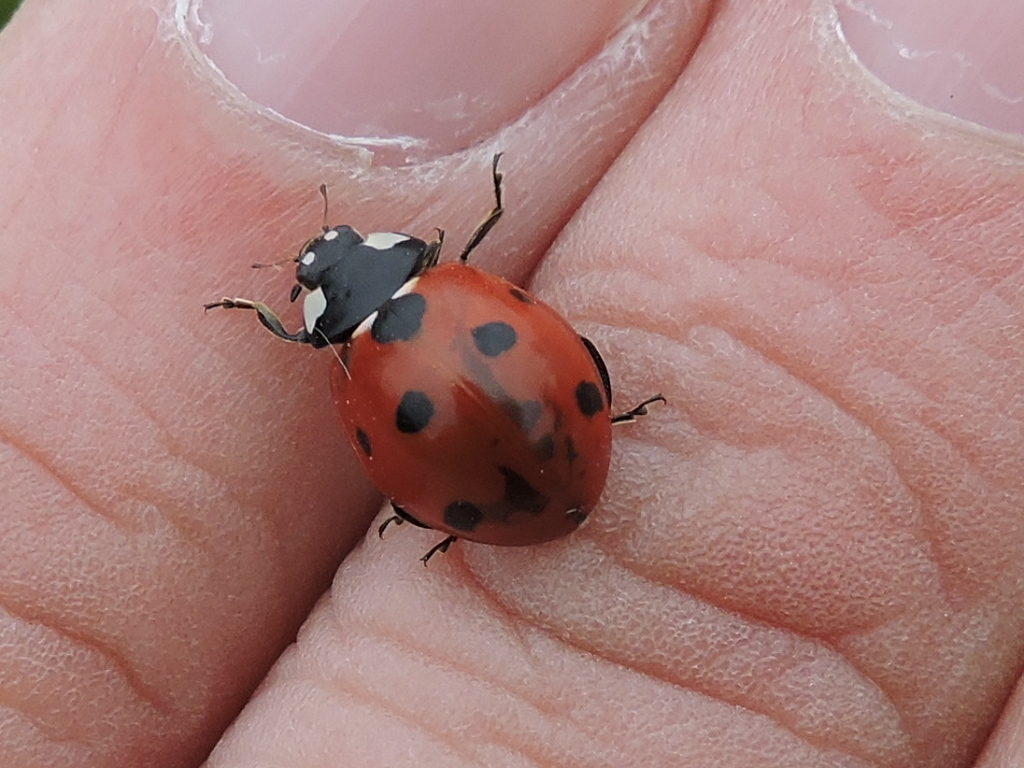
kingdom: Animalia
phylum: Arthropoda
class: Insecta
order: Coleoptera
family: Coccinellidae
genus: Coccinella
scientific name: Coccinella septempunctata
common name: Sevenspotted lady beetle
